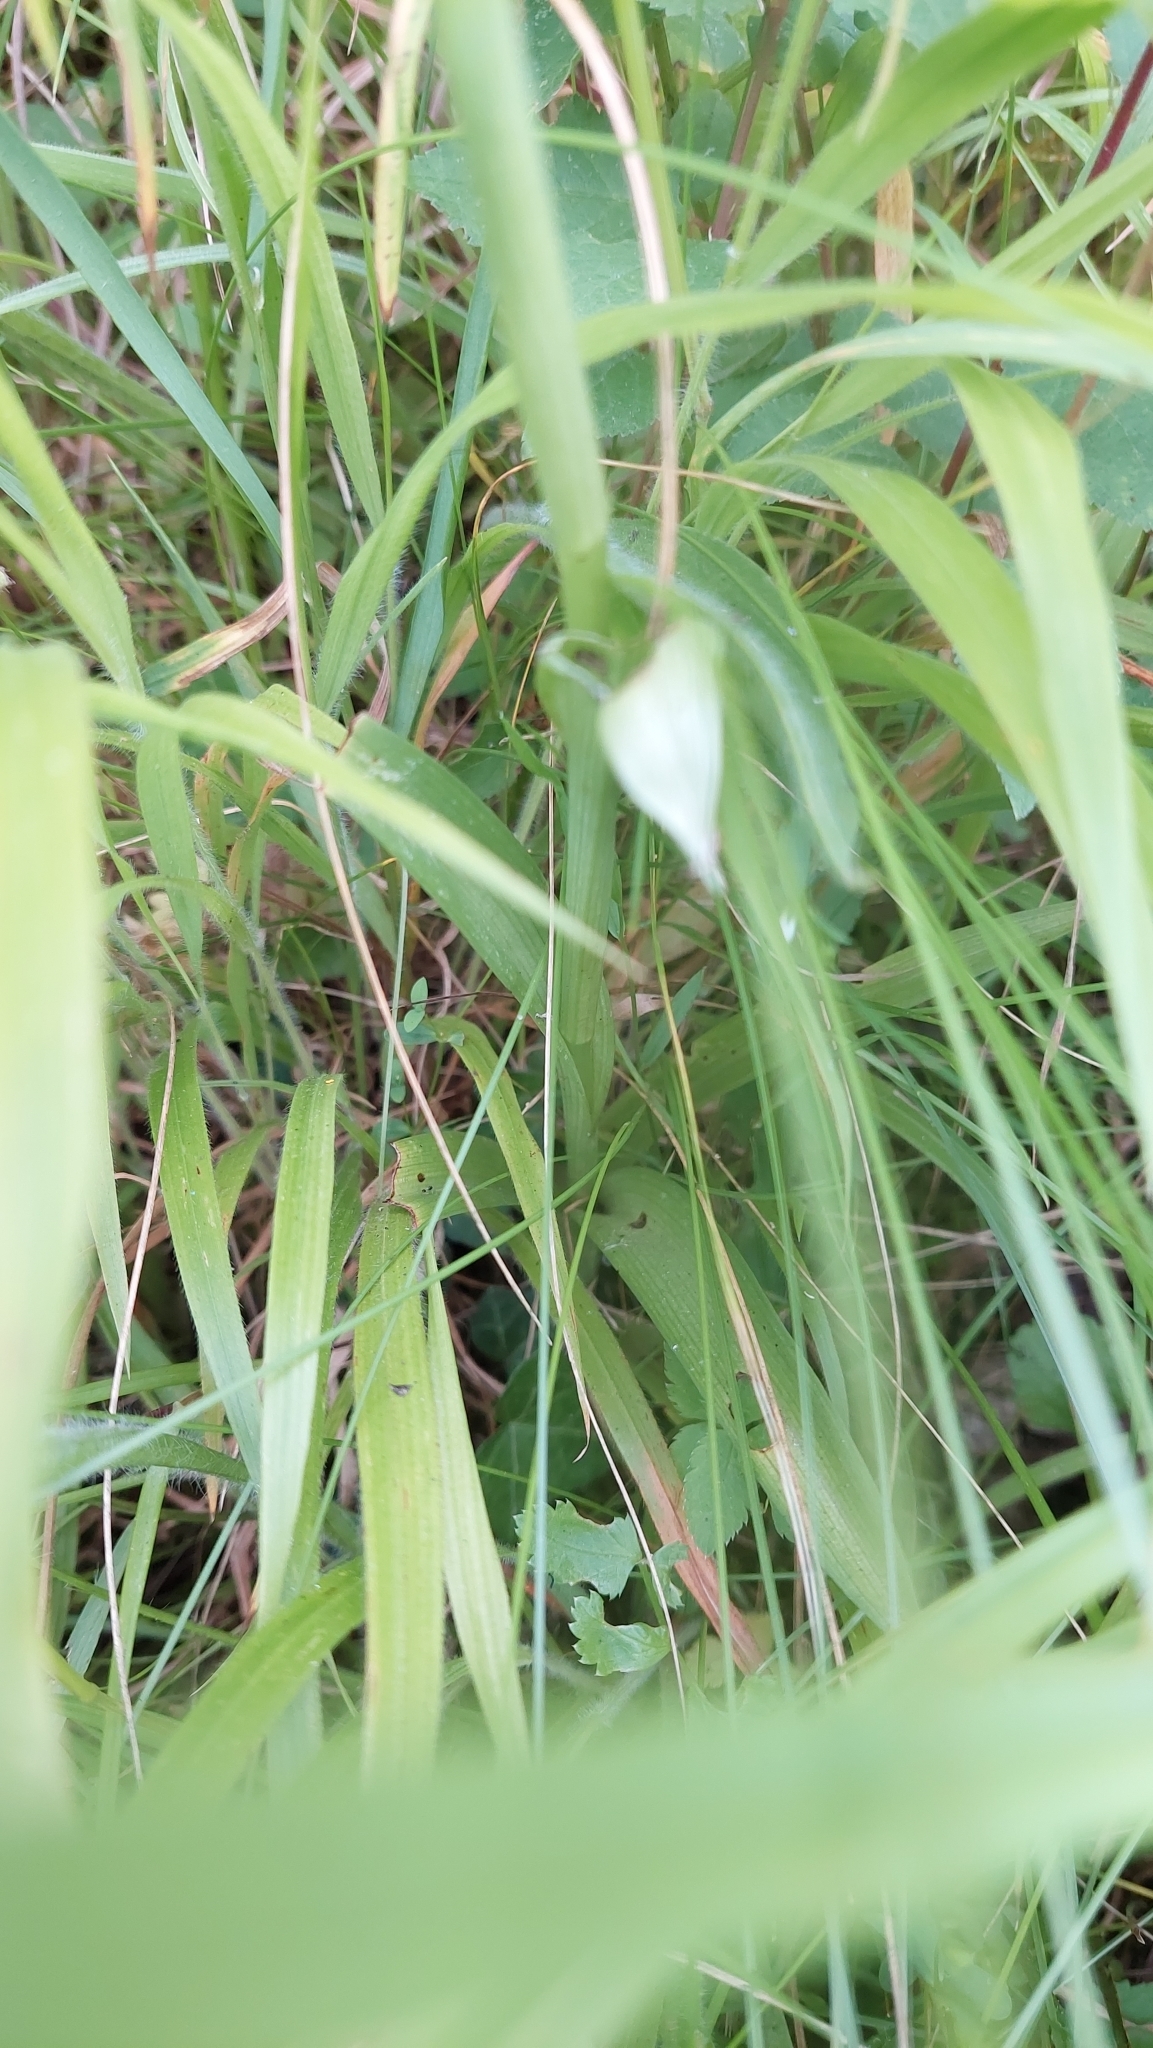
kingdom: Plantae
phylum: Tracheophyta
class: Liliopsida
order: Asparagales
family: Orchidaceae
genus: Anacamptis
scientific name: Anacamptis pyramidalis
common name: Pyramidal orchid
